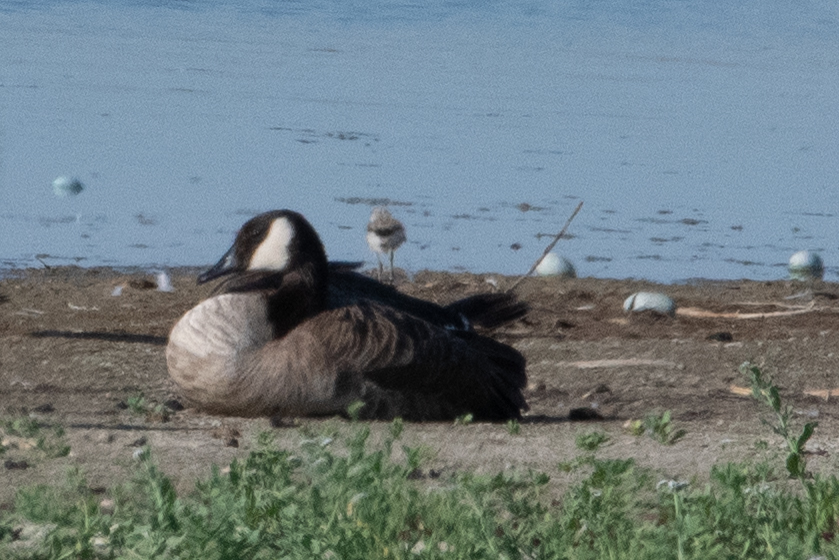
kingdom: Animalia
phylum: Chordata
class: Aves
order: Anseriformes
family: Anatidae
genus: Branta
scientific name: Branta canadensis
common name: Canada goose
